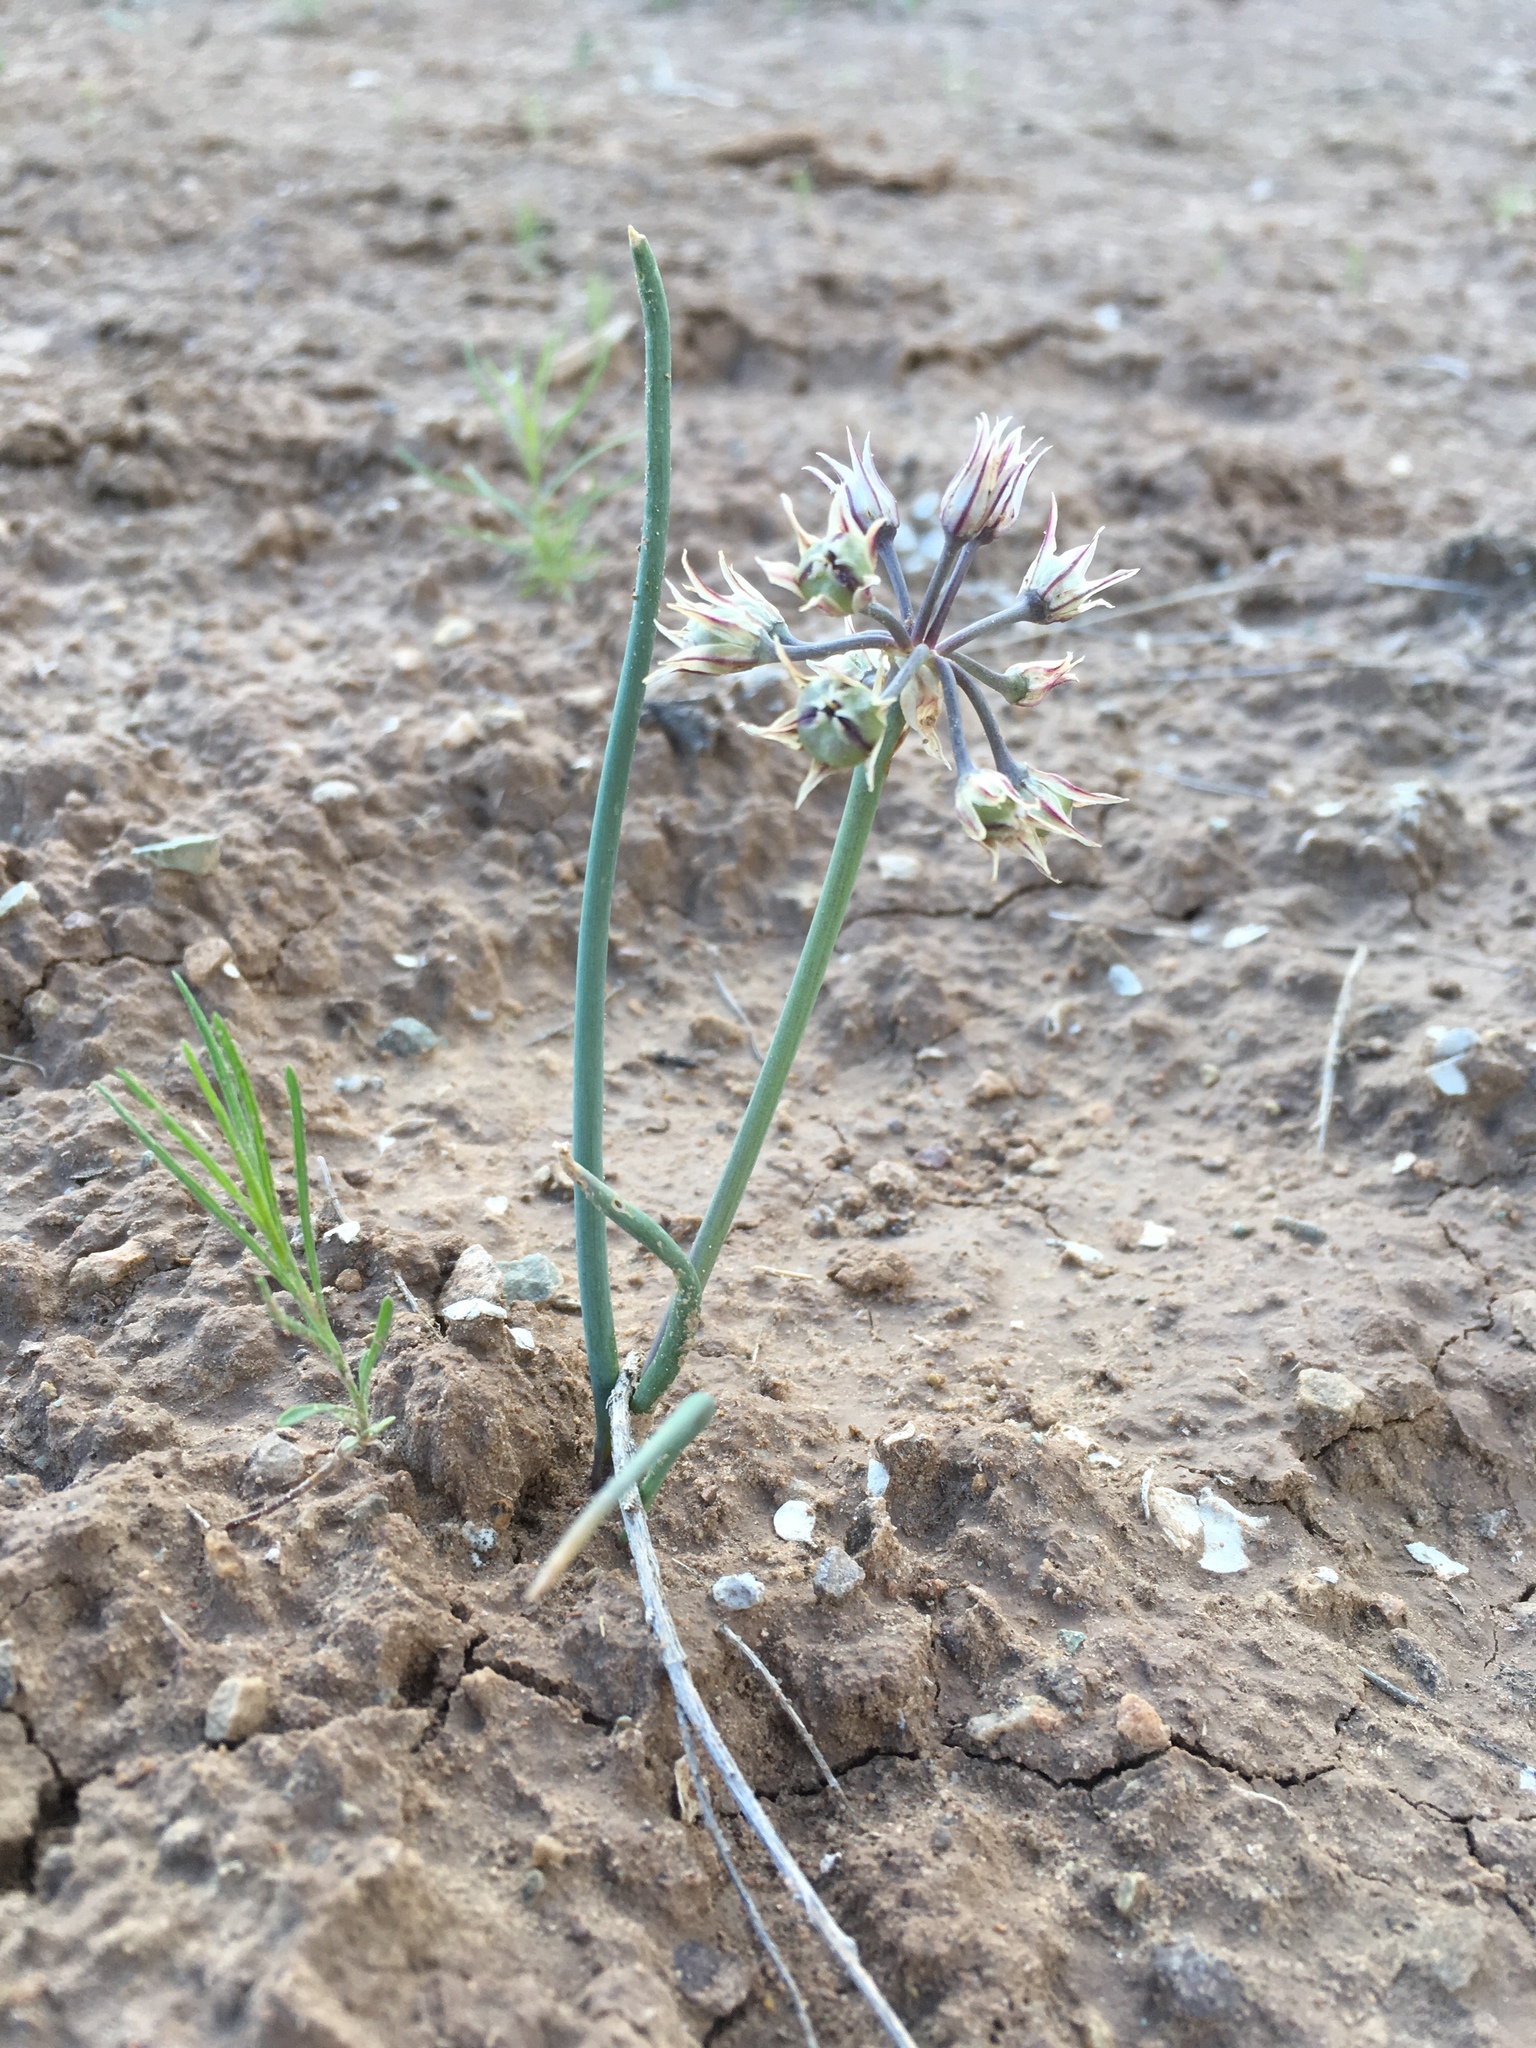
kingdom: Plantae
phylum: Tracheophyta
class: Liliopsida
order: Asparagales
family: Amaryllidaceae
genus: Allium
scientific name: Allium macropetalum
